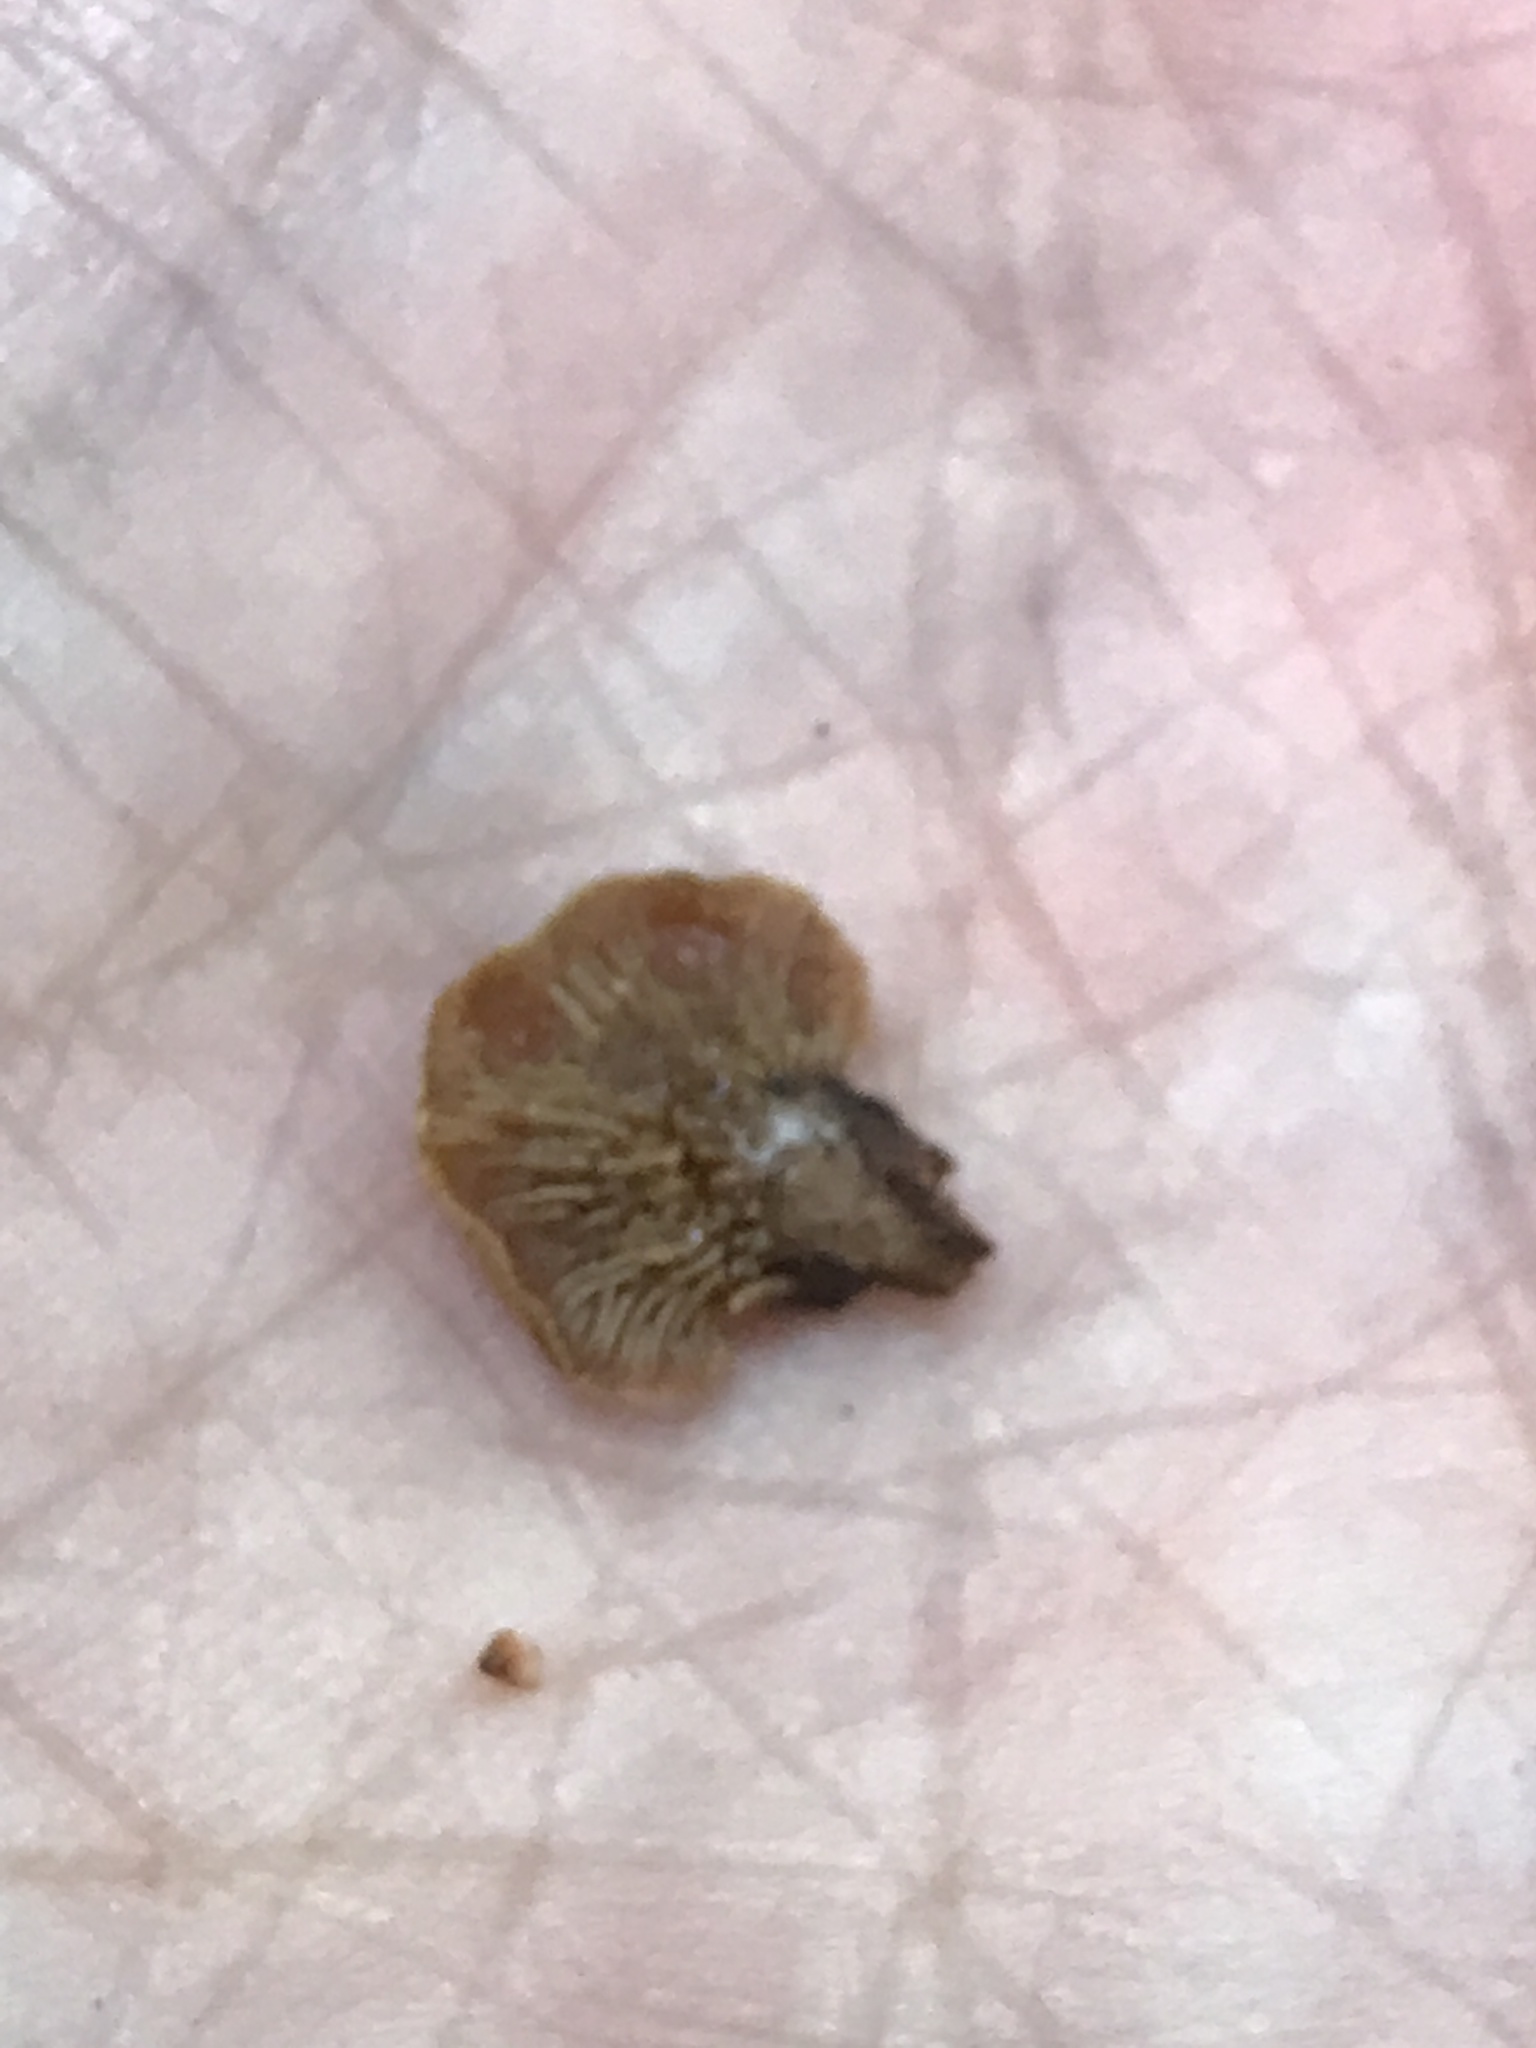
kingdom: Fungi
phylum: Basidiomycota
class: Agaricomycetes
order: Agaricales
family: Schizophyllaceae
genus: Schizophyllum
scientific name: Schizophyllum commune
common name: Common porecrust
